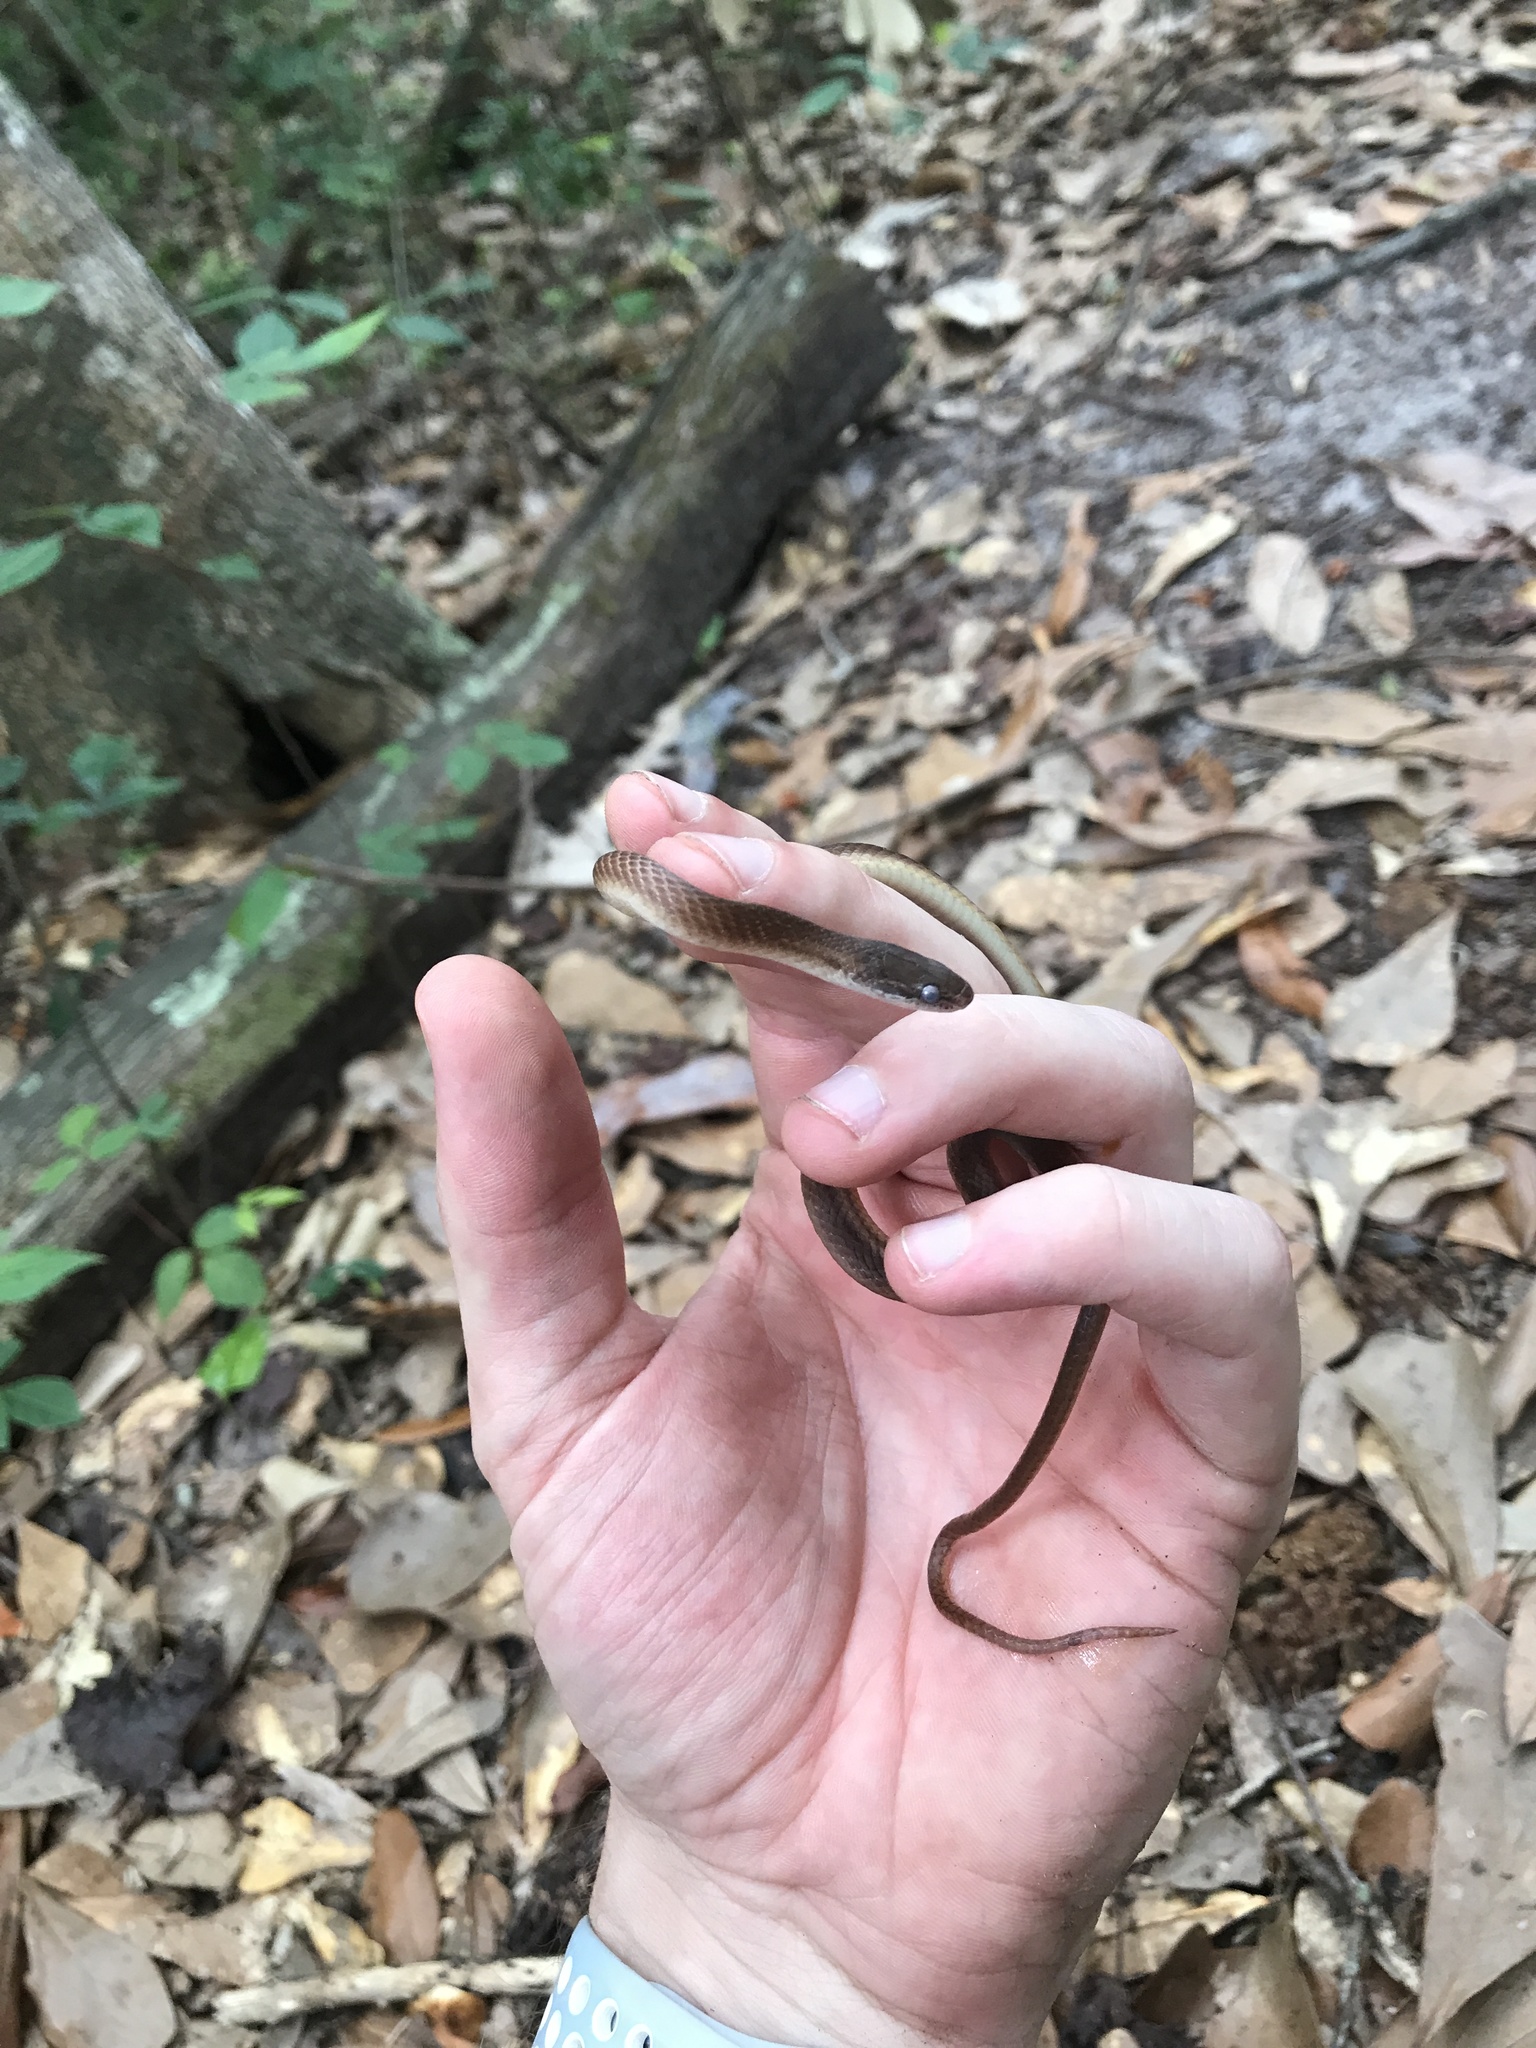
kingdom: Animalia
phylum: Chordata
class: Squamata
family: Colubridae
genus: Rhadinaea
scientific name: Rhadinaea flavilata
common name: Pine woods littersnake
